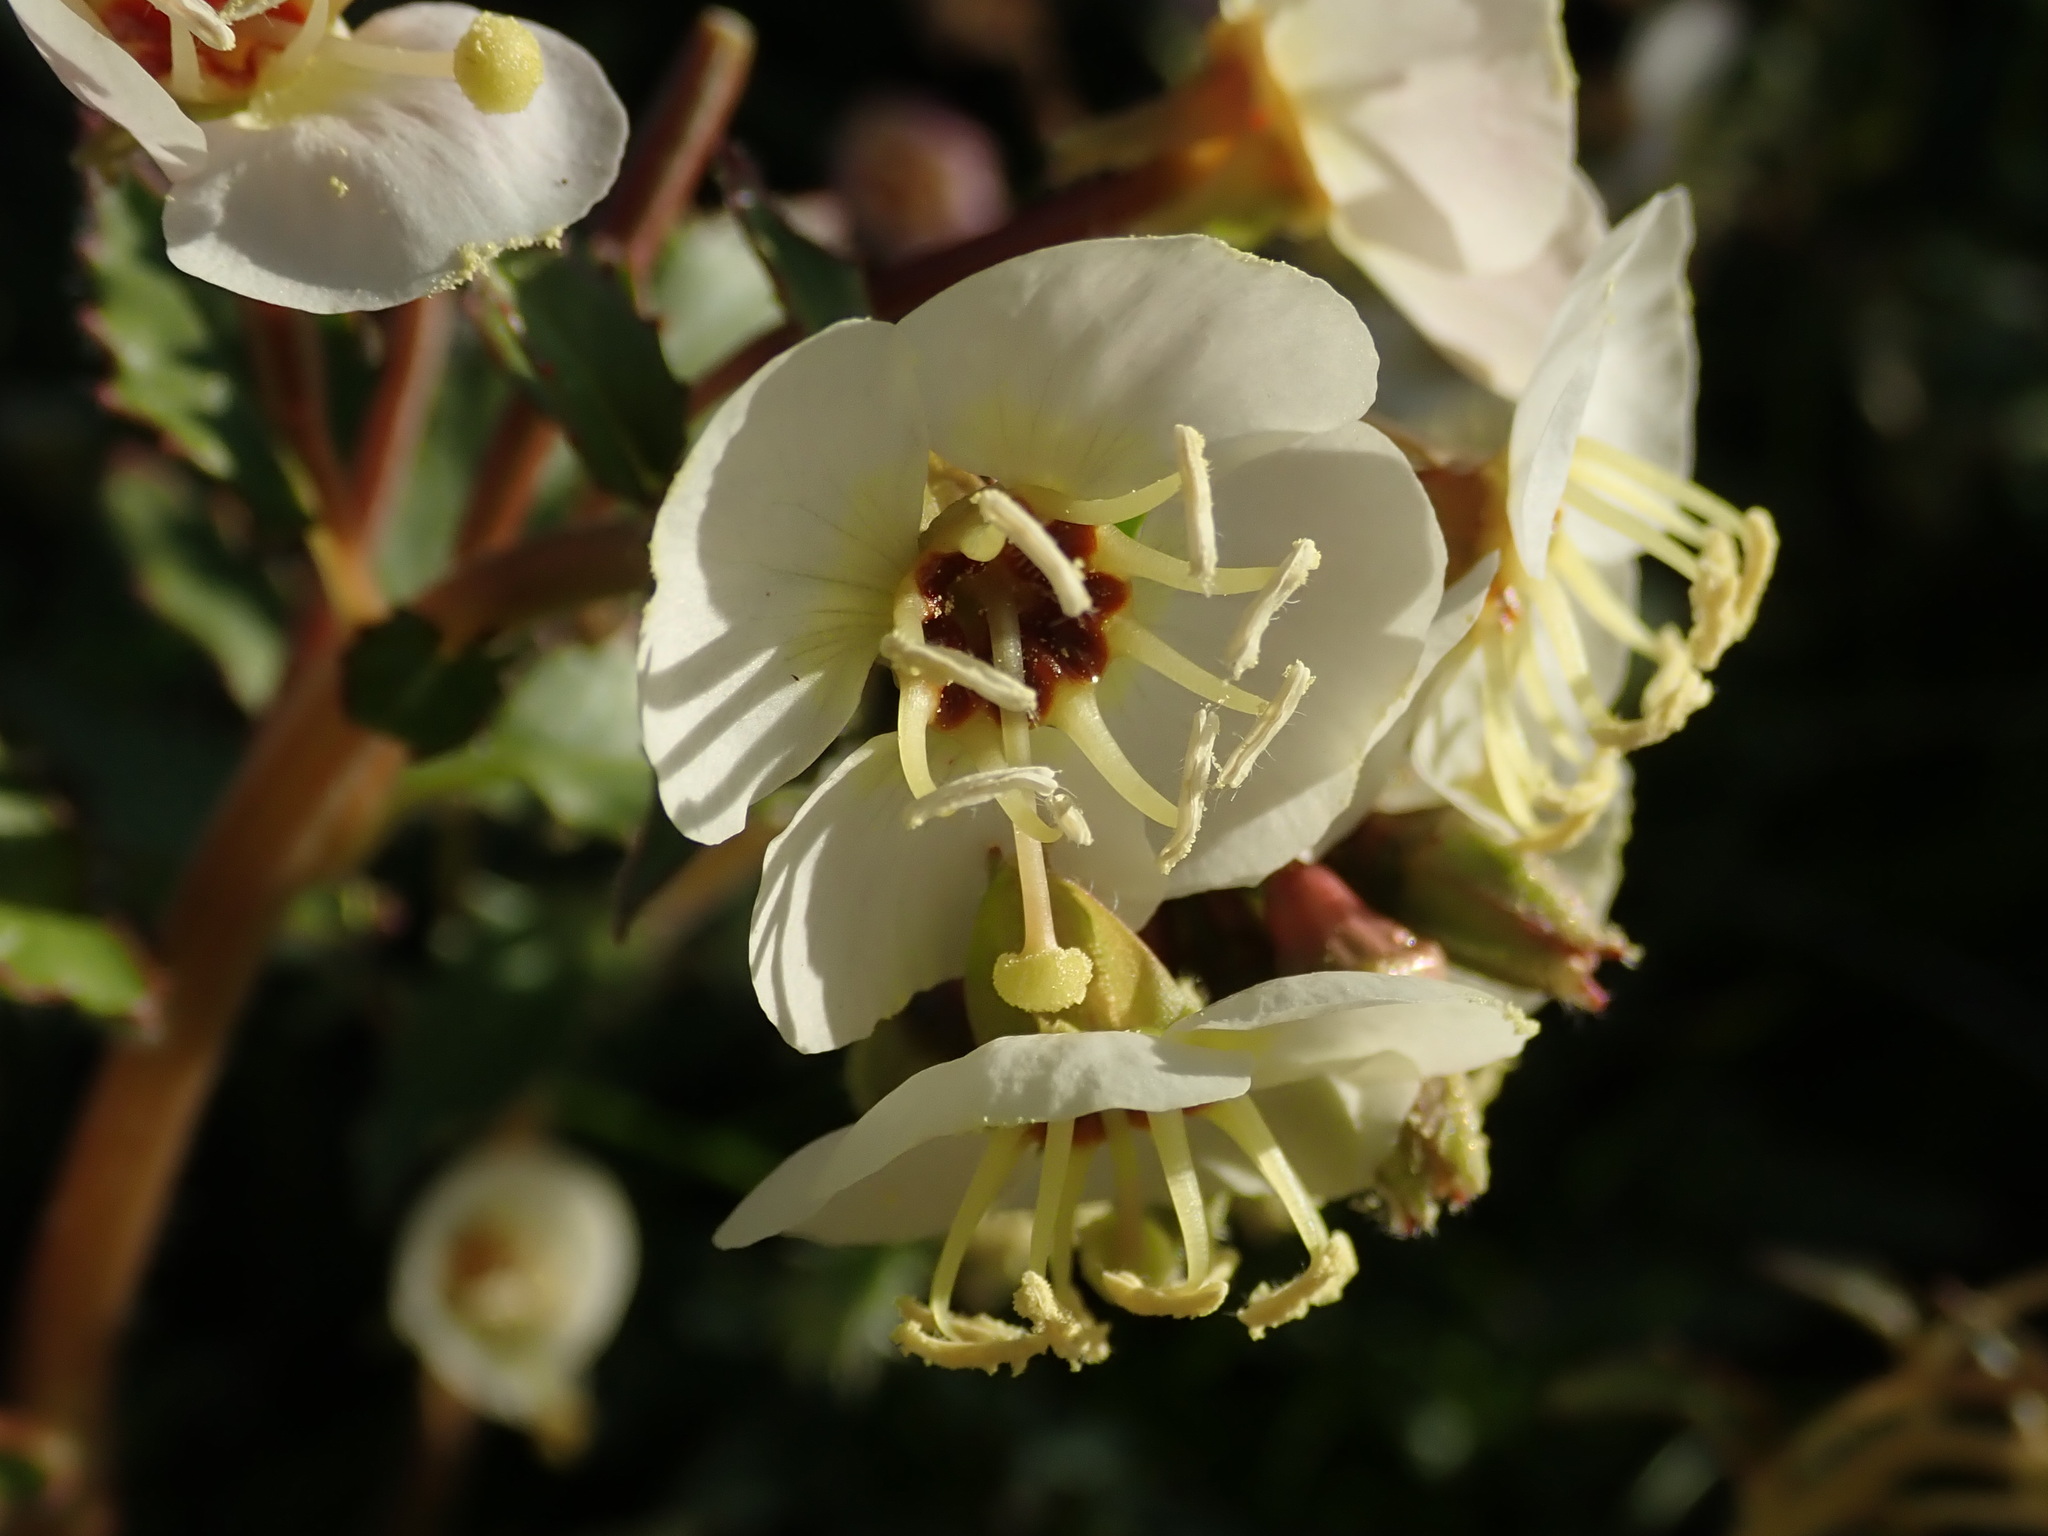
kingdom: Plantae
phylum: Tracheophyta
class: Magnoliopsida
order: Myrtales
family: Onagraceae
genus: Chylismia
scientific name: Chylismia claviformis
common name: Browneyes
